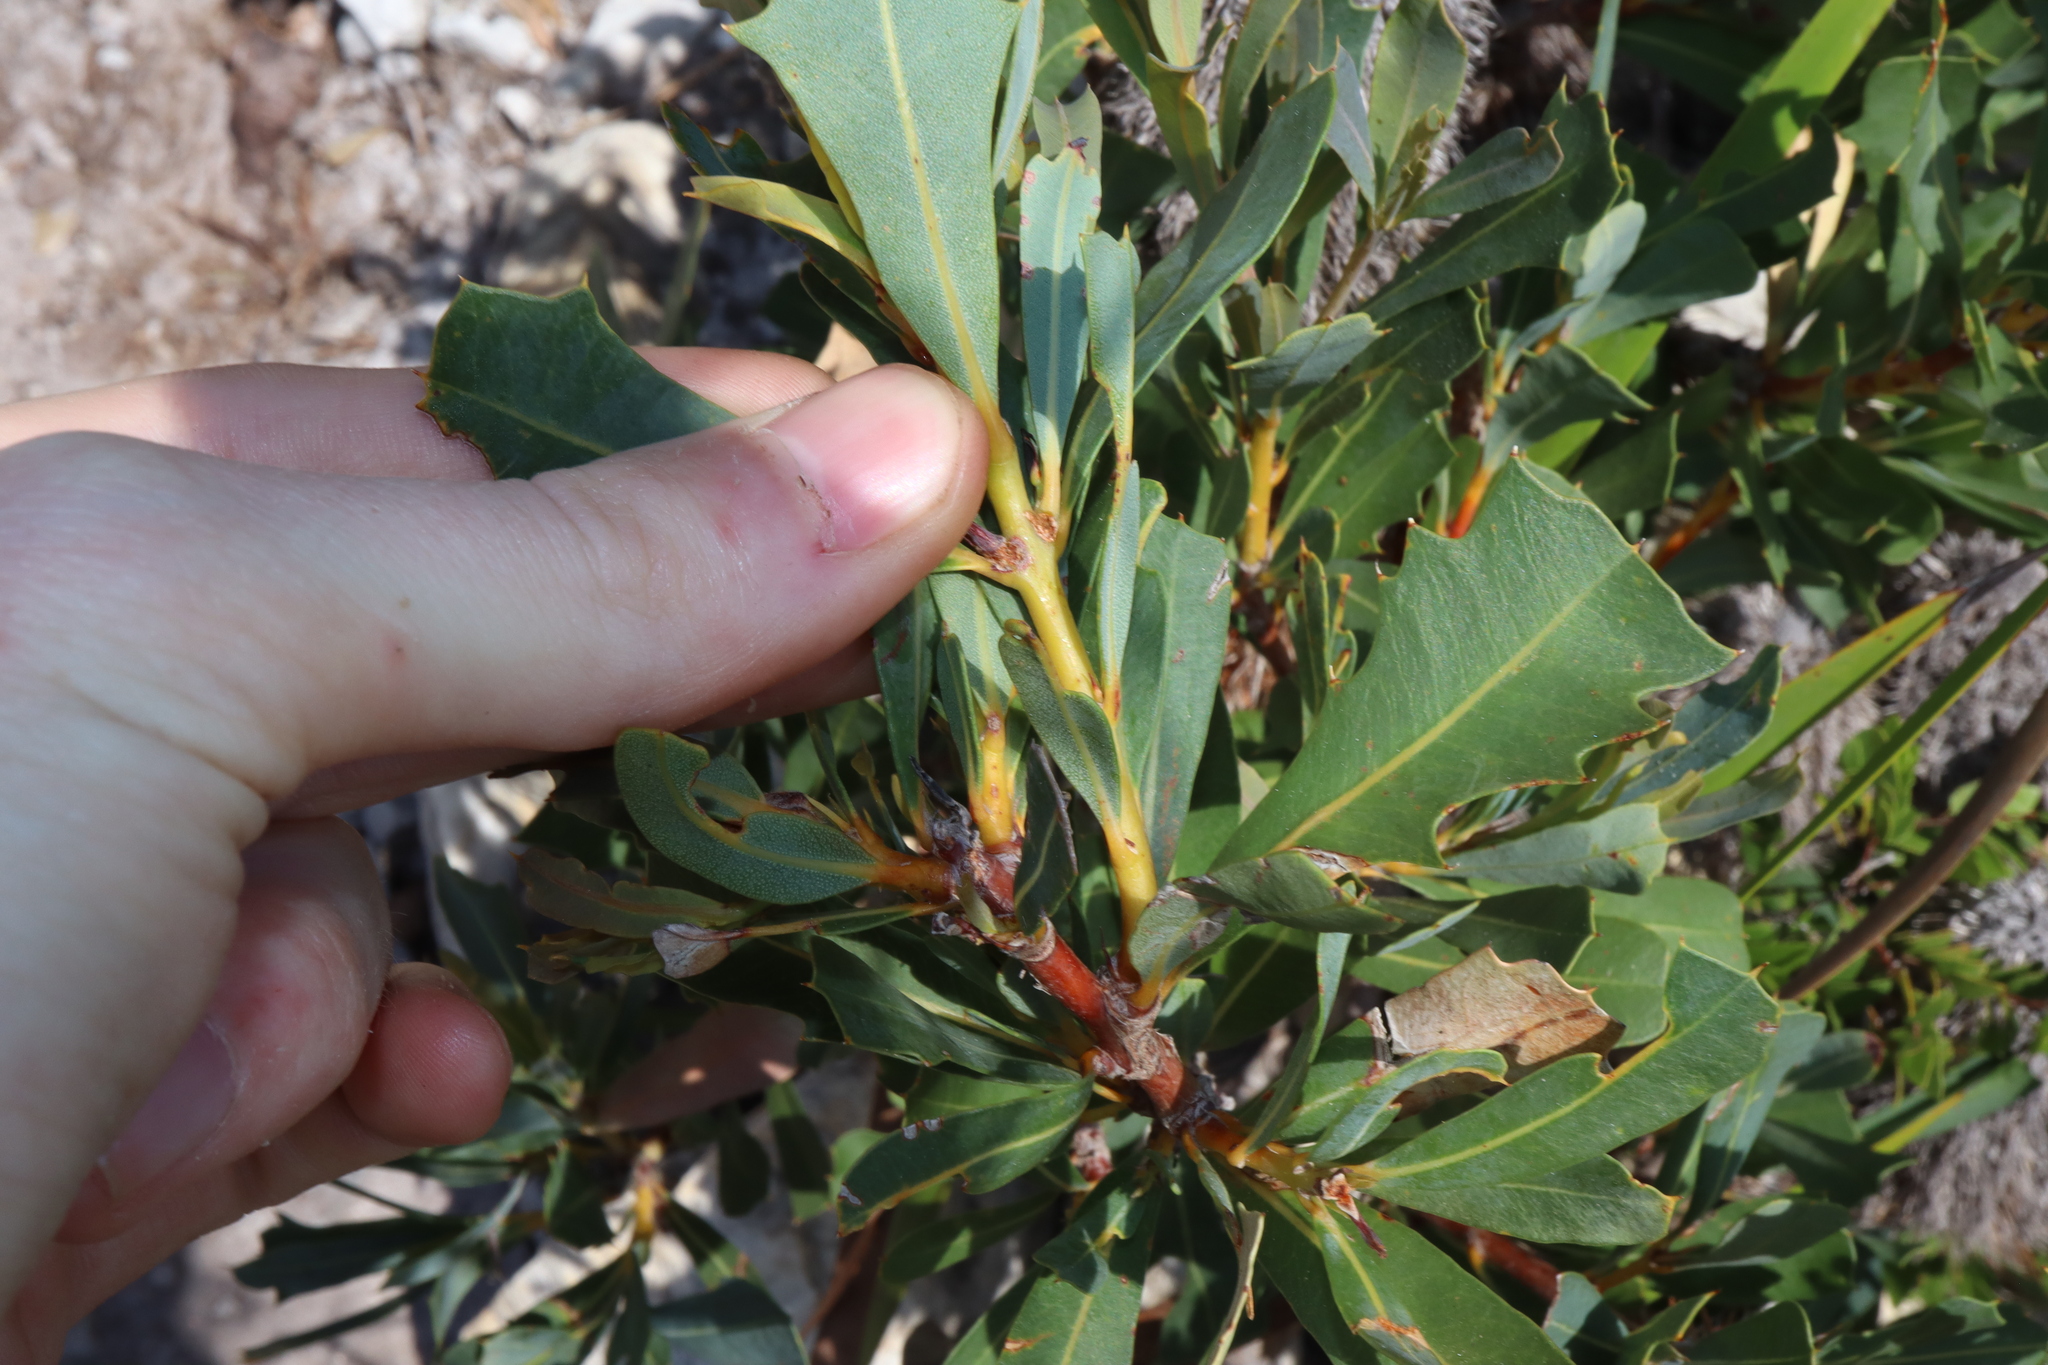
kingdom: Plantae
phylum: Tracheophyta
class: Magnoliopsida
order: Proteales
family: Proteaceae
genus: Banksia
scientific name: Banksia oreophila
